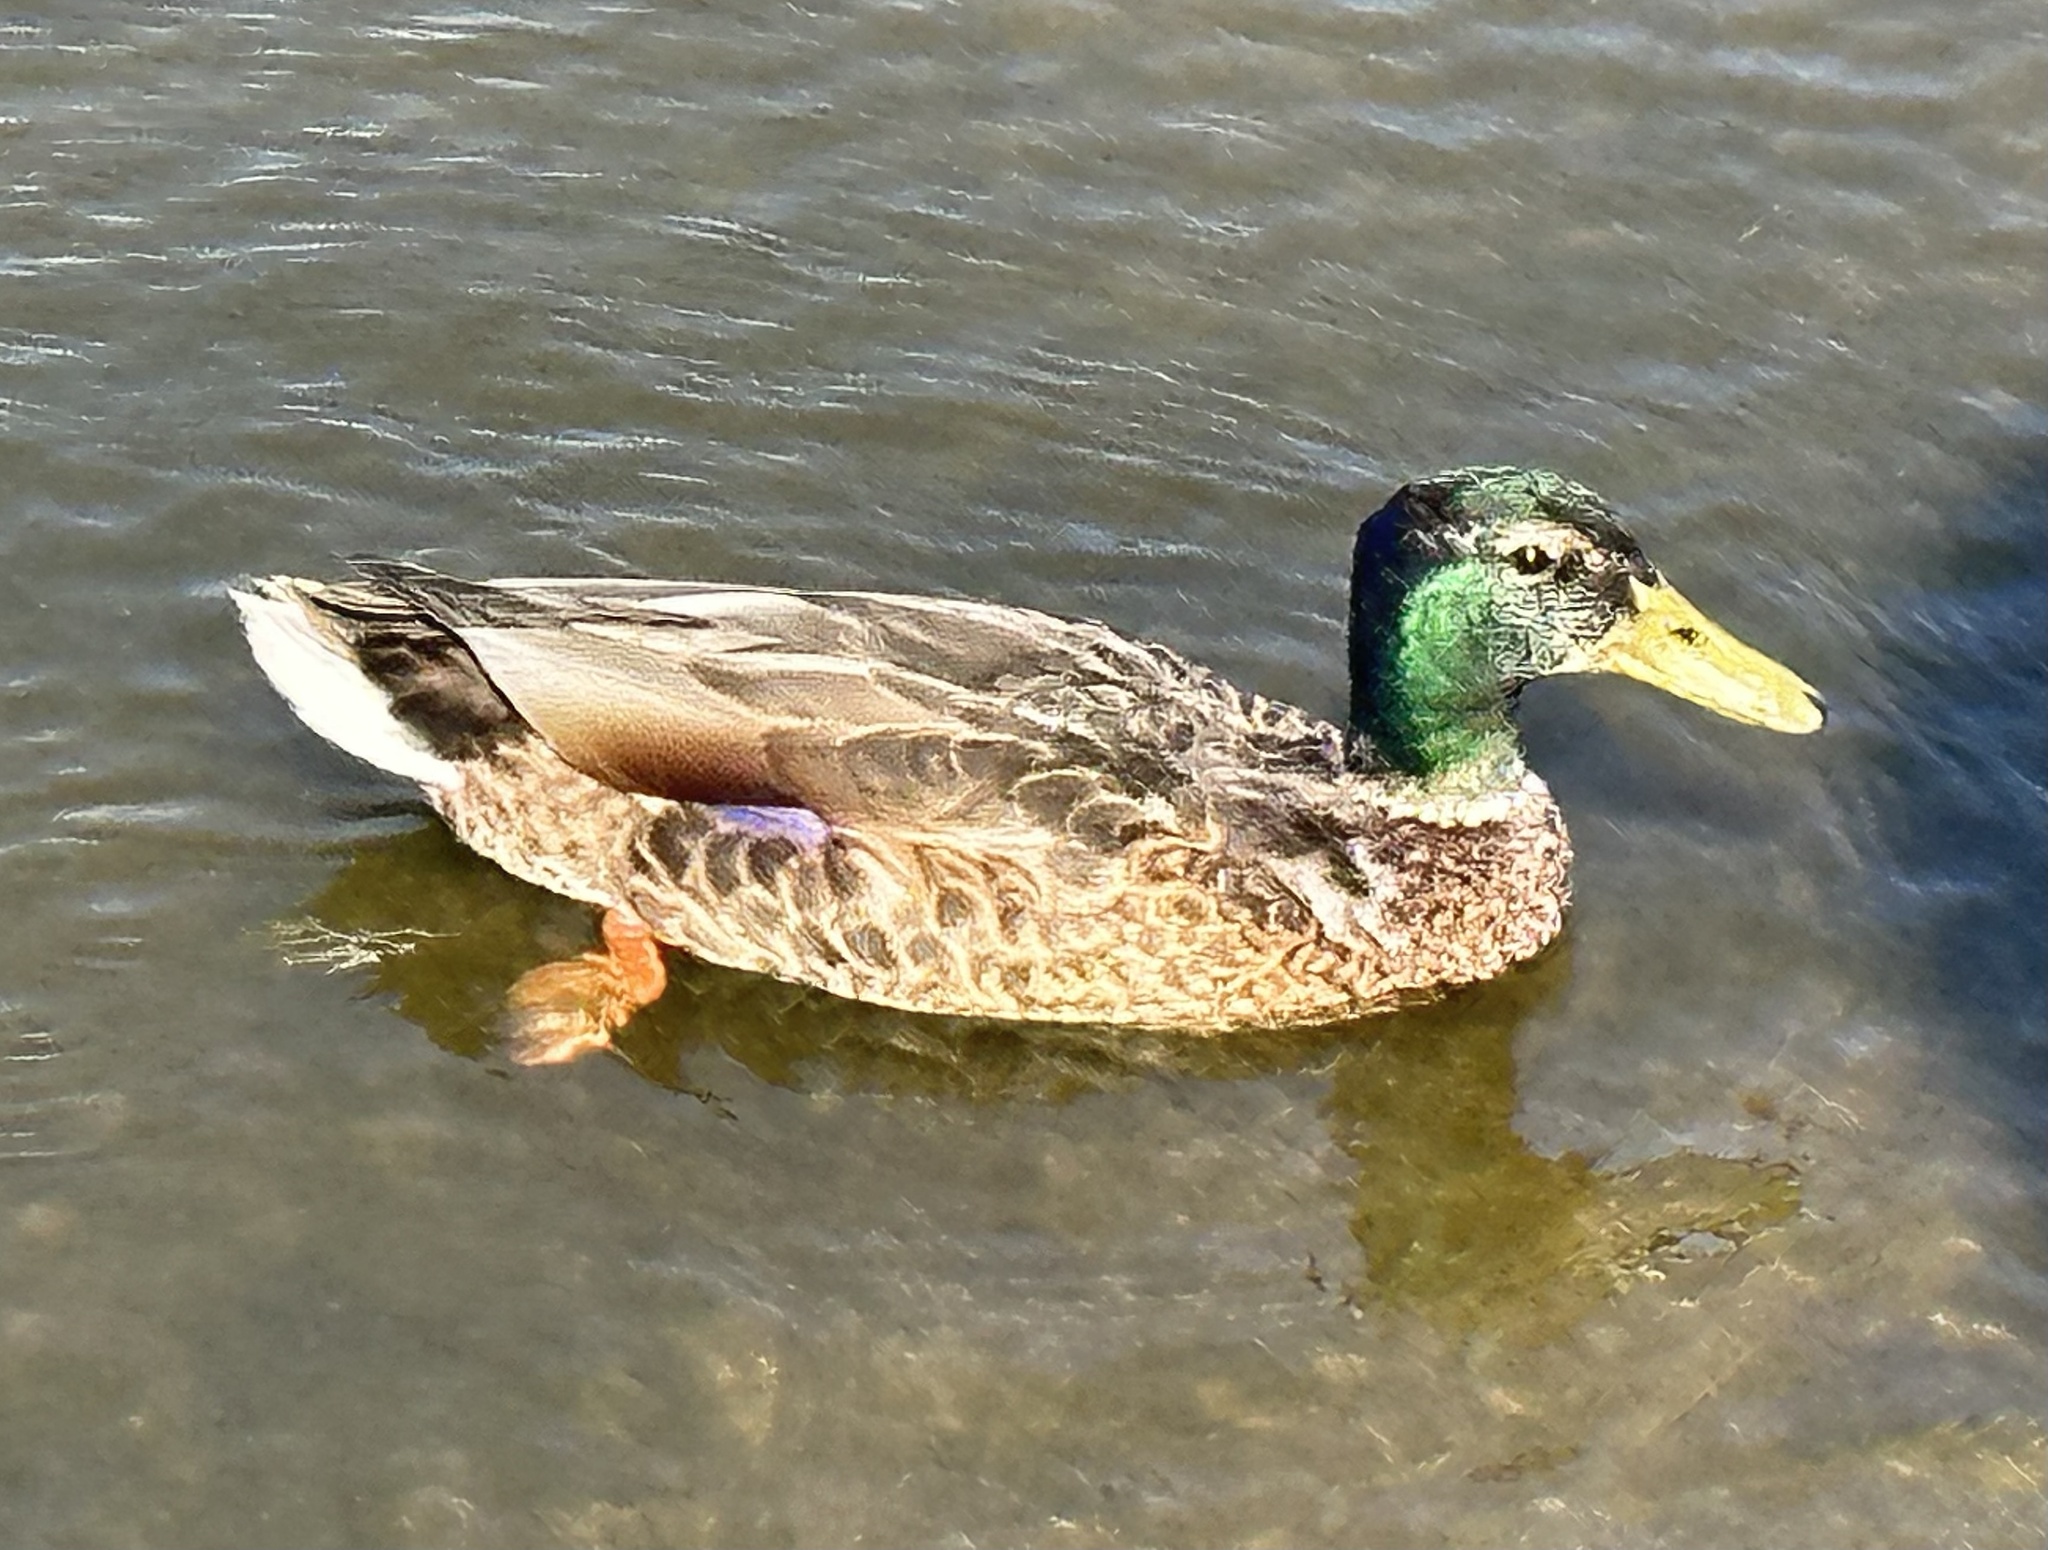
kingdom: Animalia
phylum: Chordata
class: Aves
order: Anseriformes
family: Anatidae
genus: Anas
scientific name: Anas platyrhynchos
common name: Mallard
